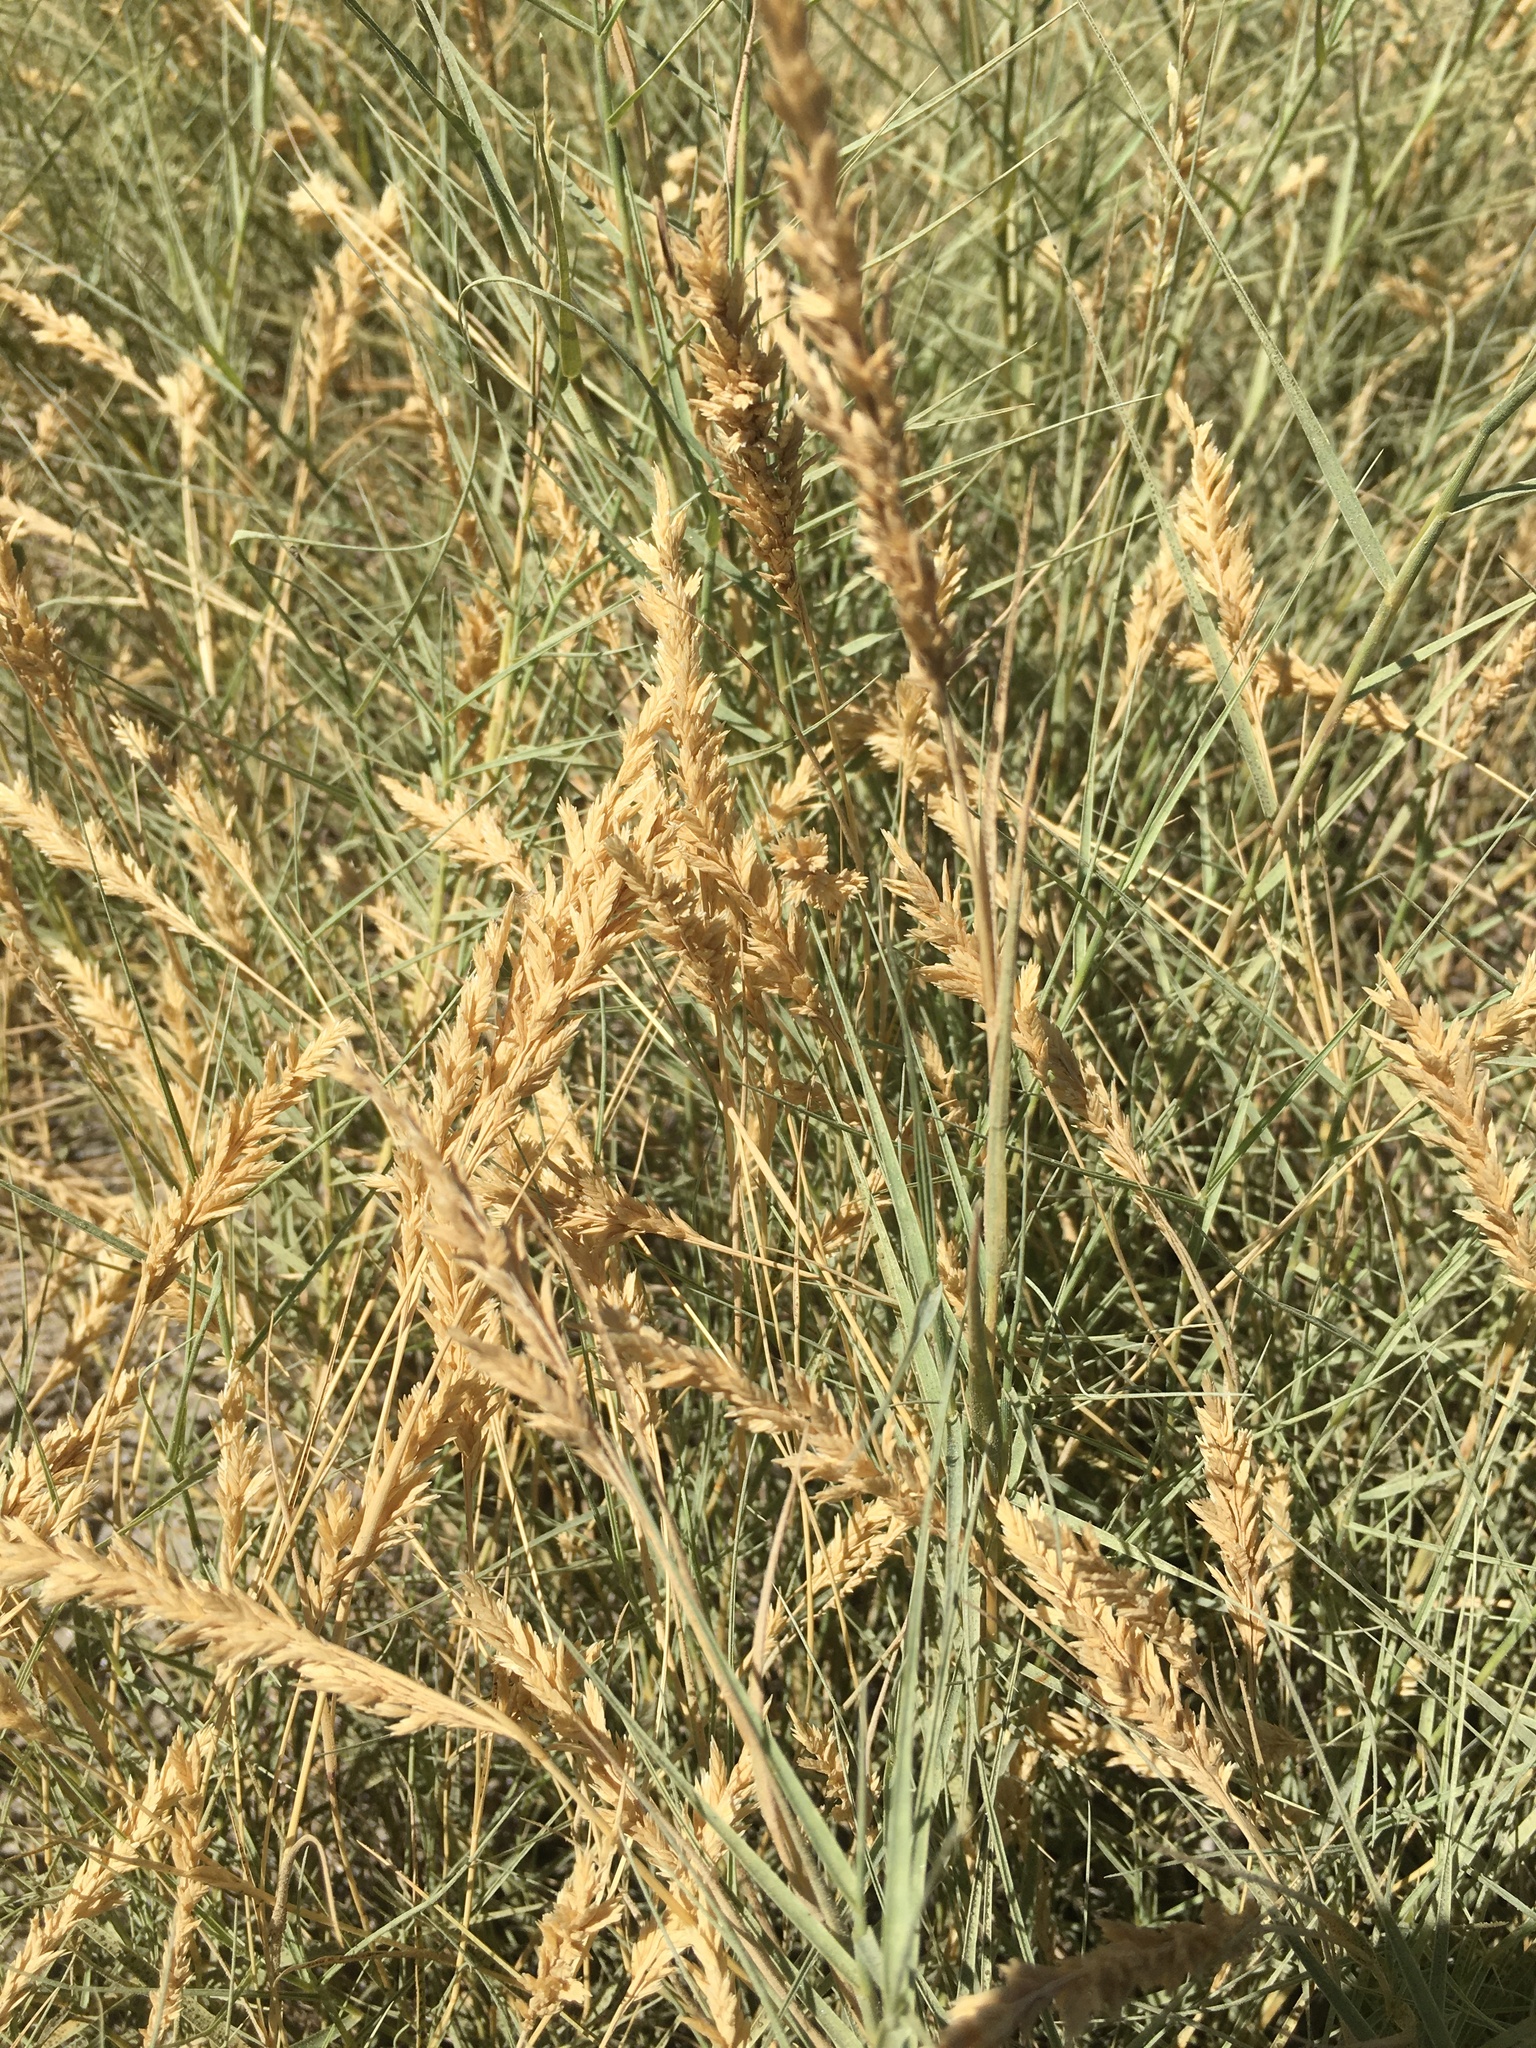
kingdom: Plantae
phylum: Tracheophyta
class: Liliopsida
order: Poales
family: Poaceae
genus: Distichlis
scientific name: Distichlis spicata
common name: Saltgrass
